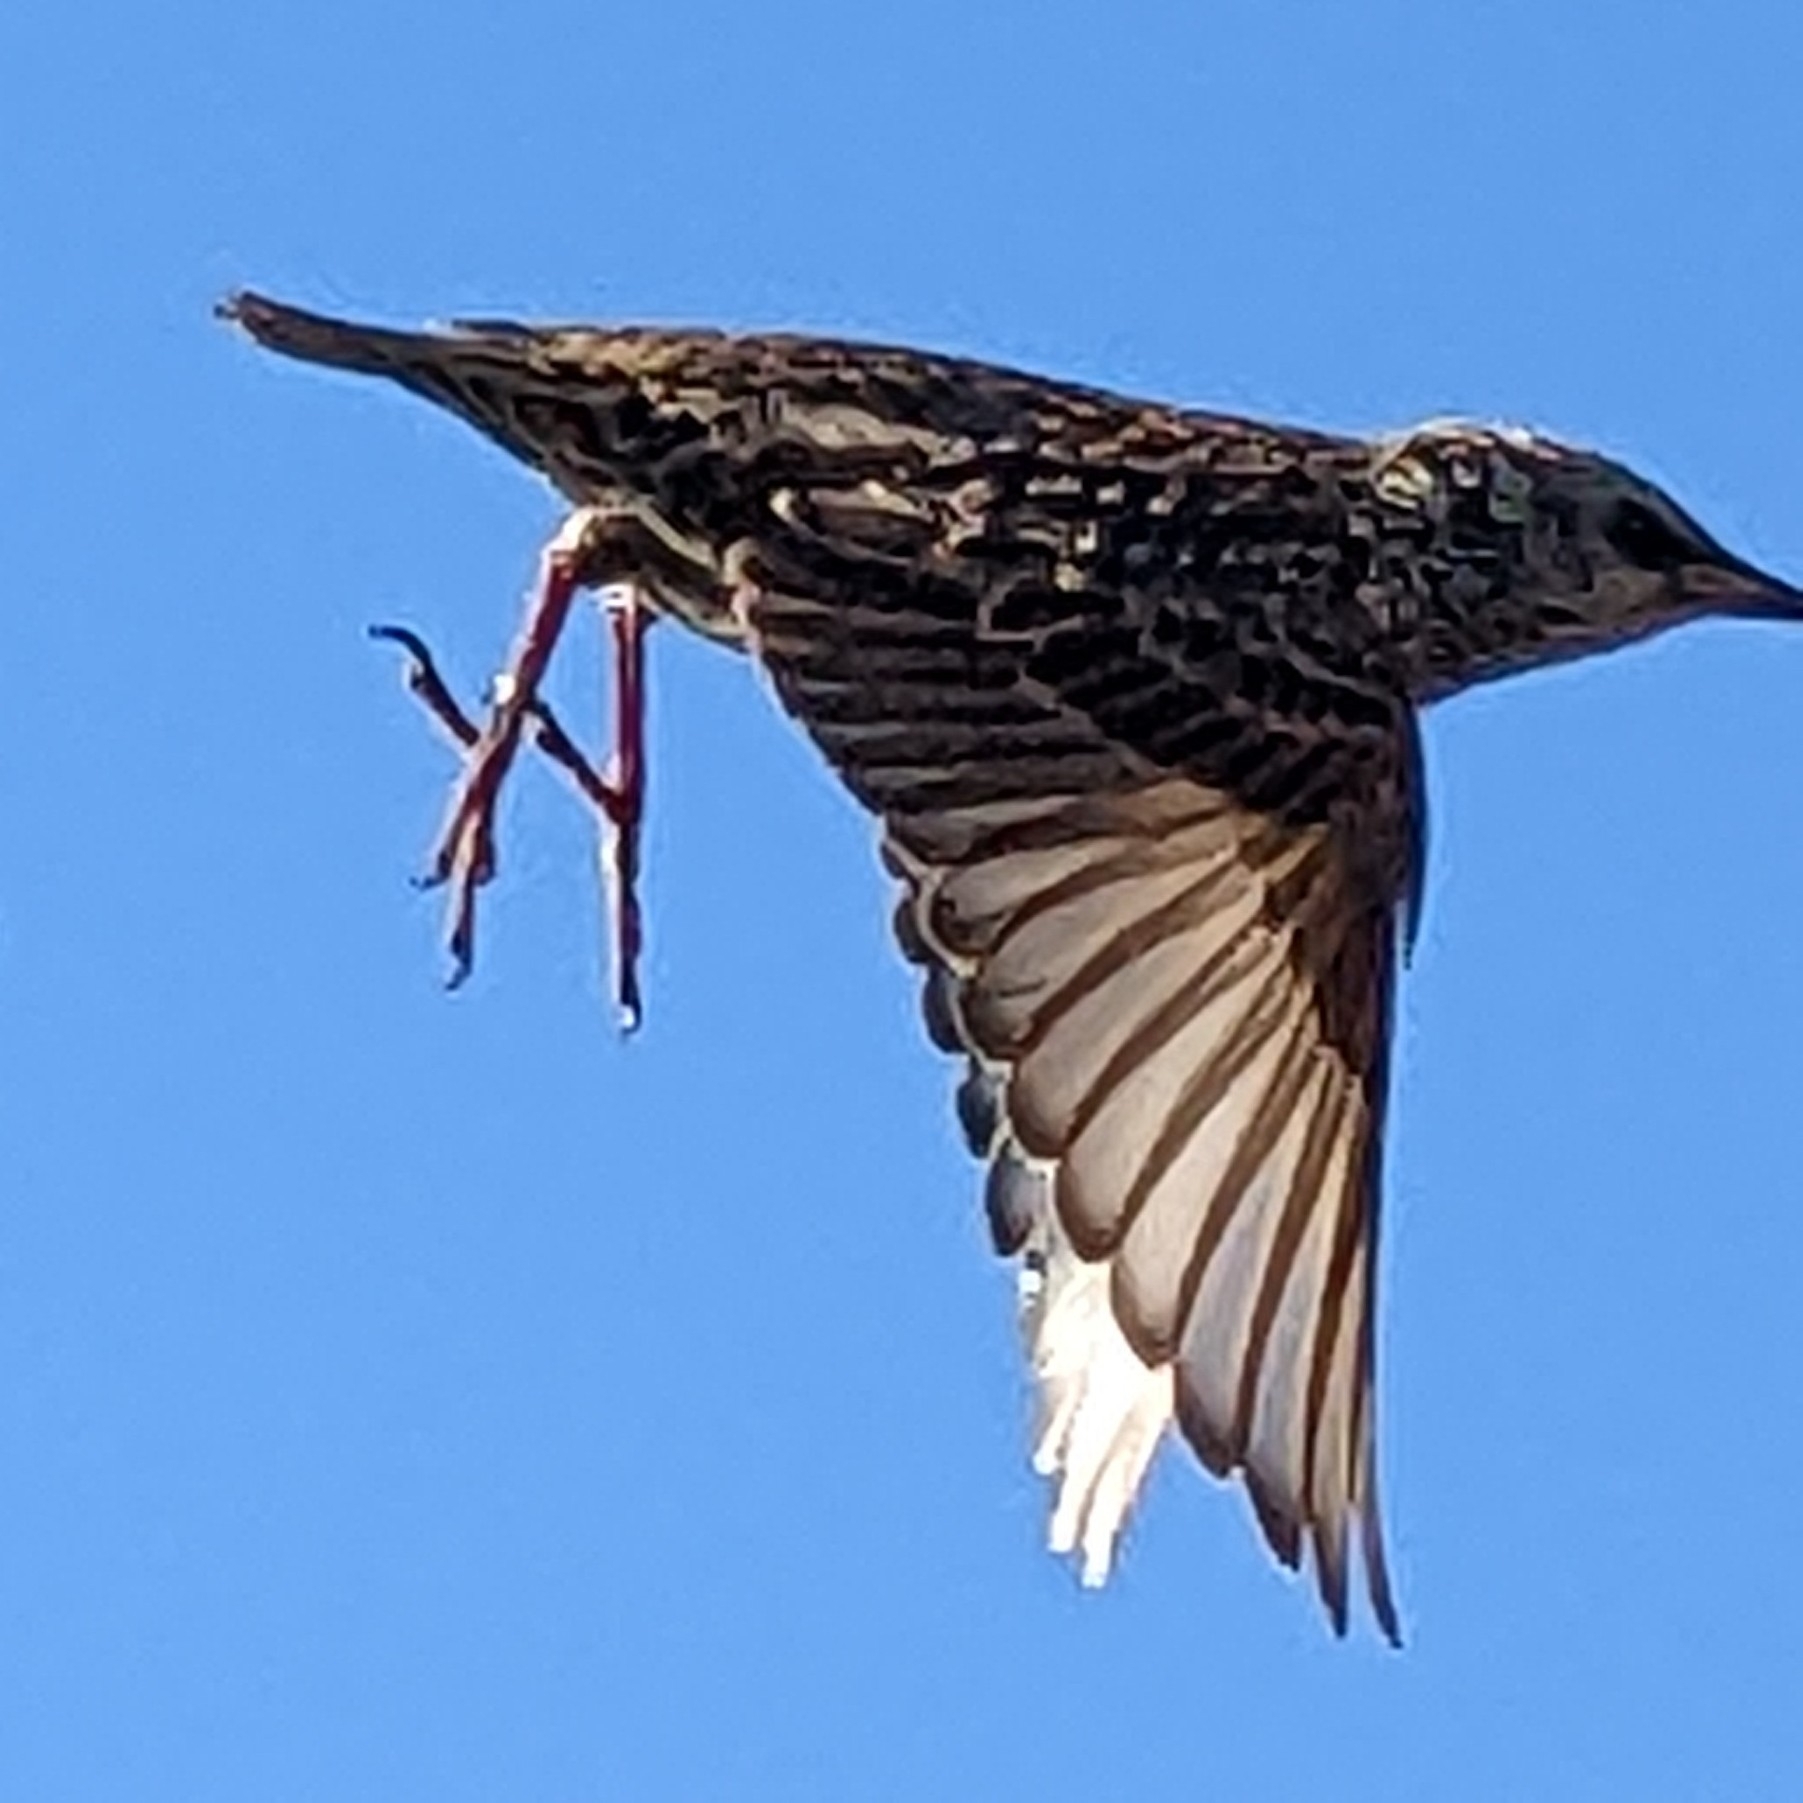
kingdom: Animalia
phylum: Chordata
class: Aves
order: Passeriformes
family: Sturnidae
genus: Sturnus
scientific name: Sturnus vulgaris
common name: Common starling
